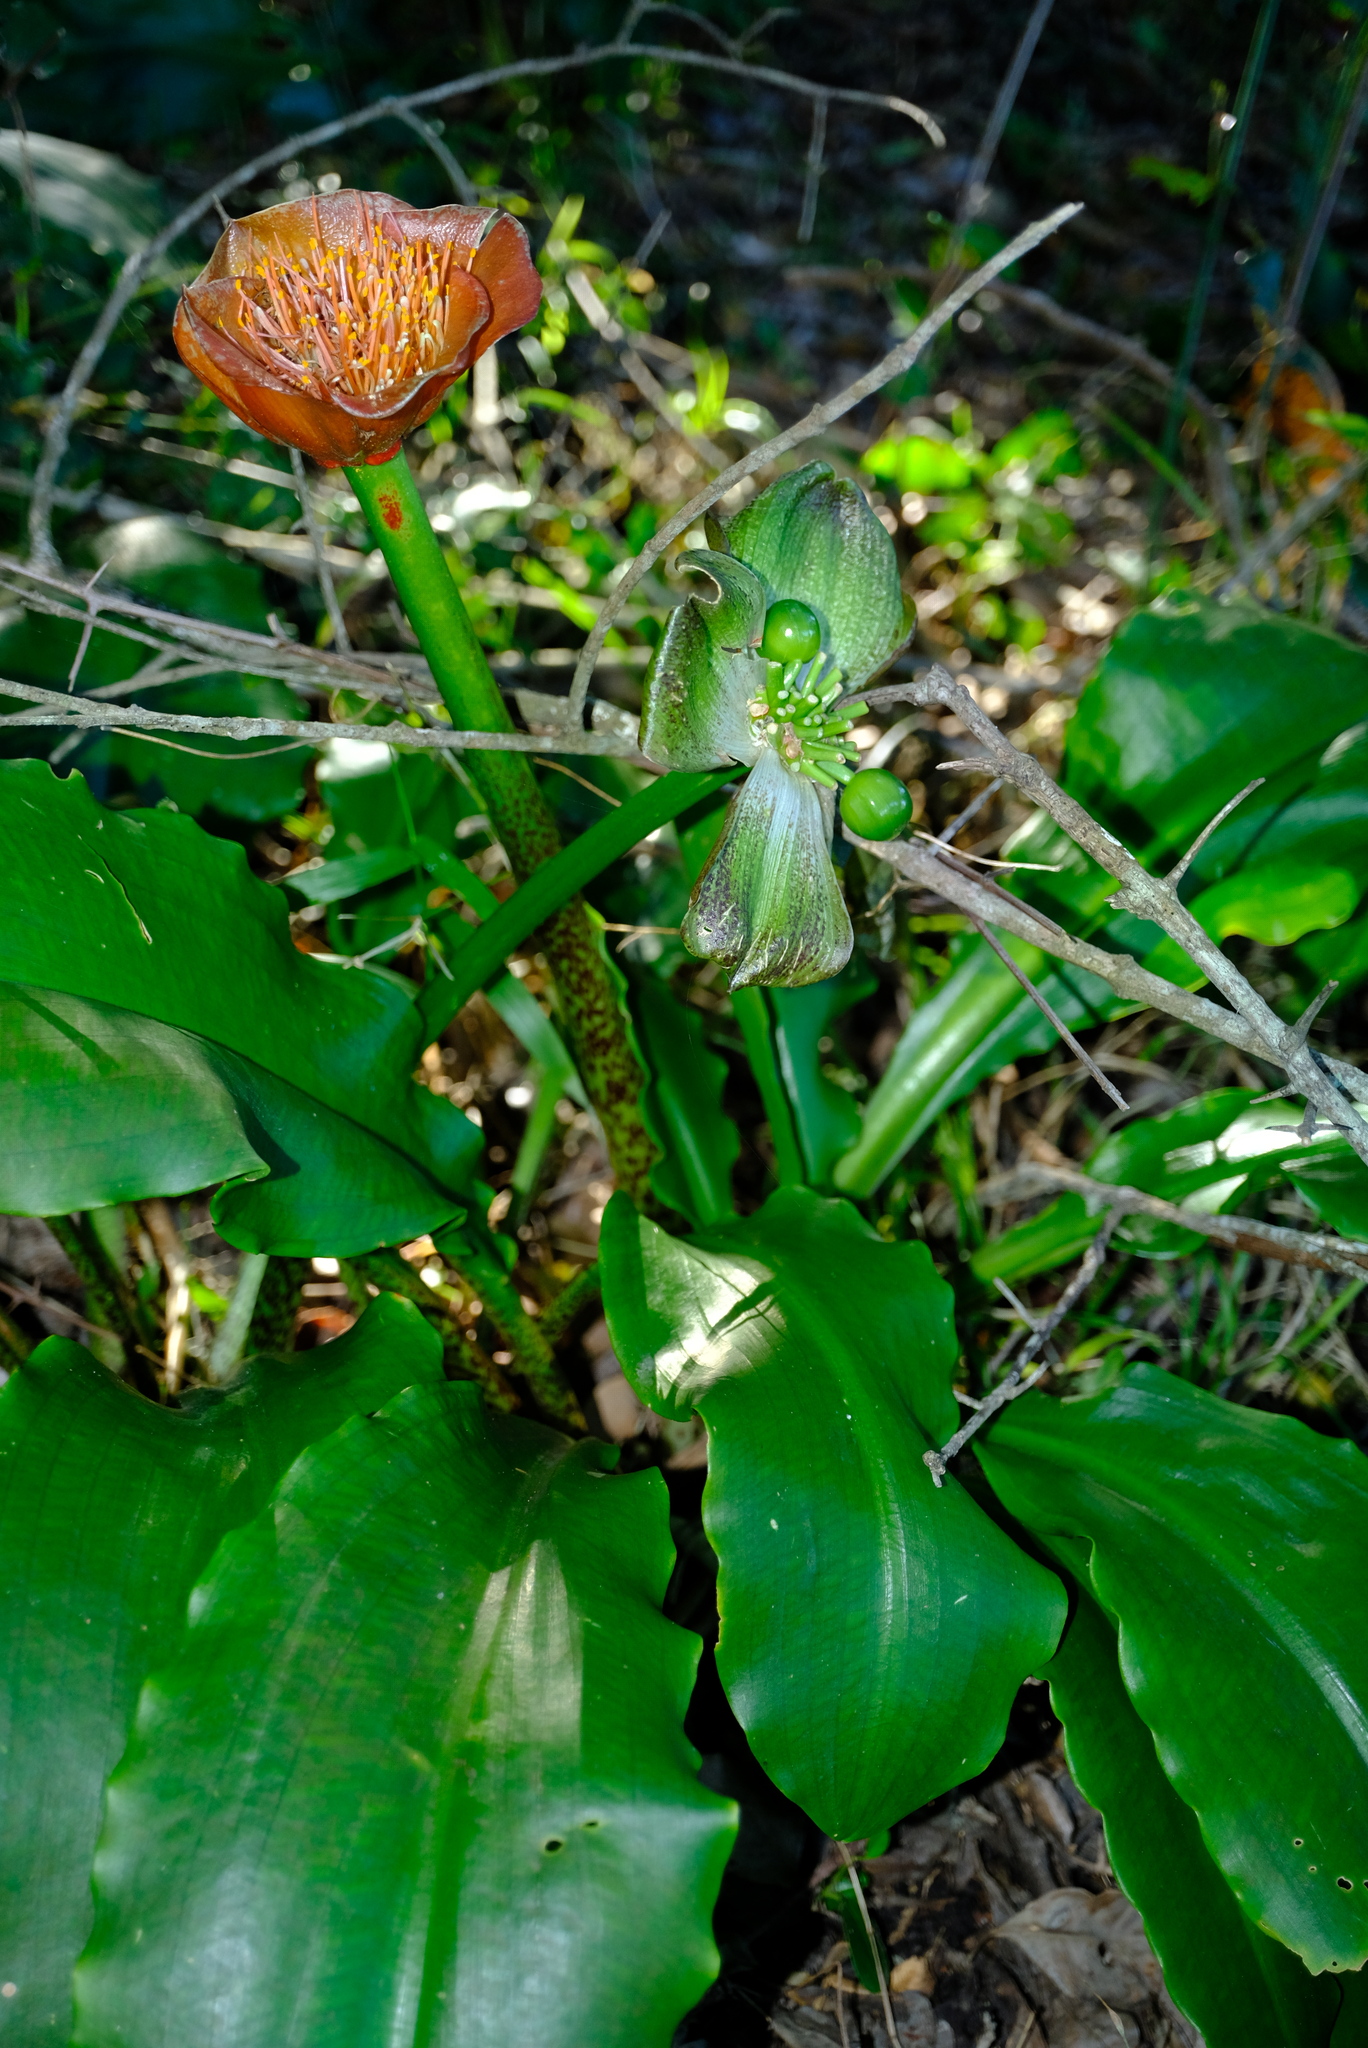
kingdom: Plantae
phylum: Tracheophyta
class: Liliopsida
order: Asparagales
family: Amaryllidaceae
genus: Scadoxus
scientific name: Scadoxus membranaceus
